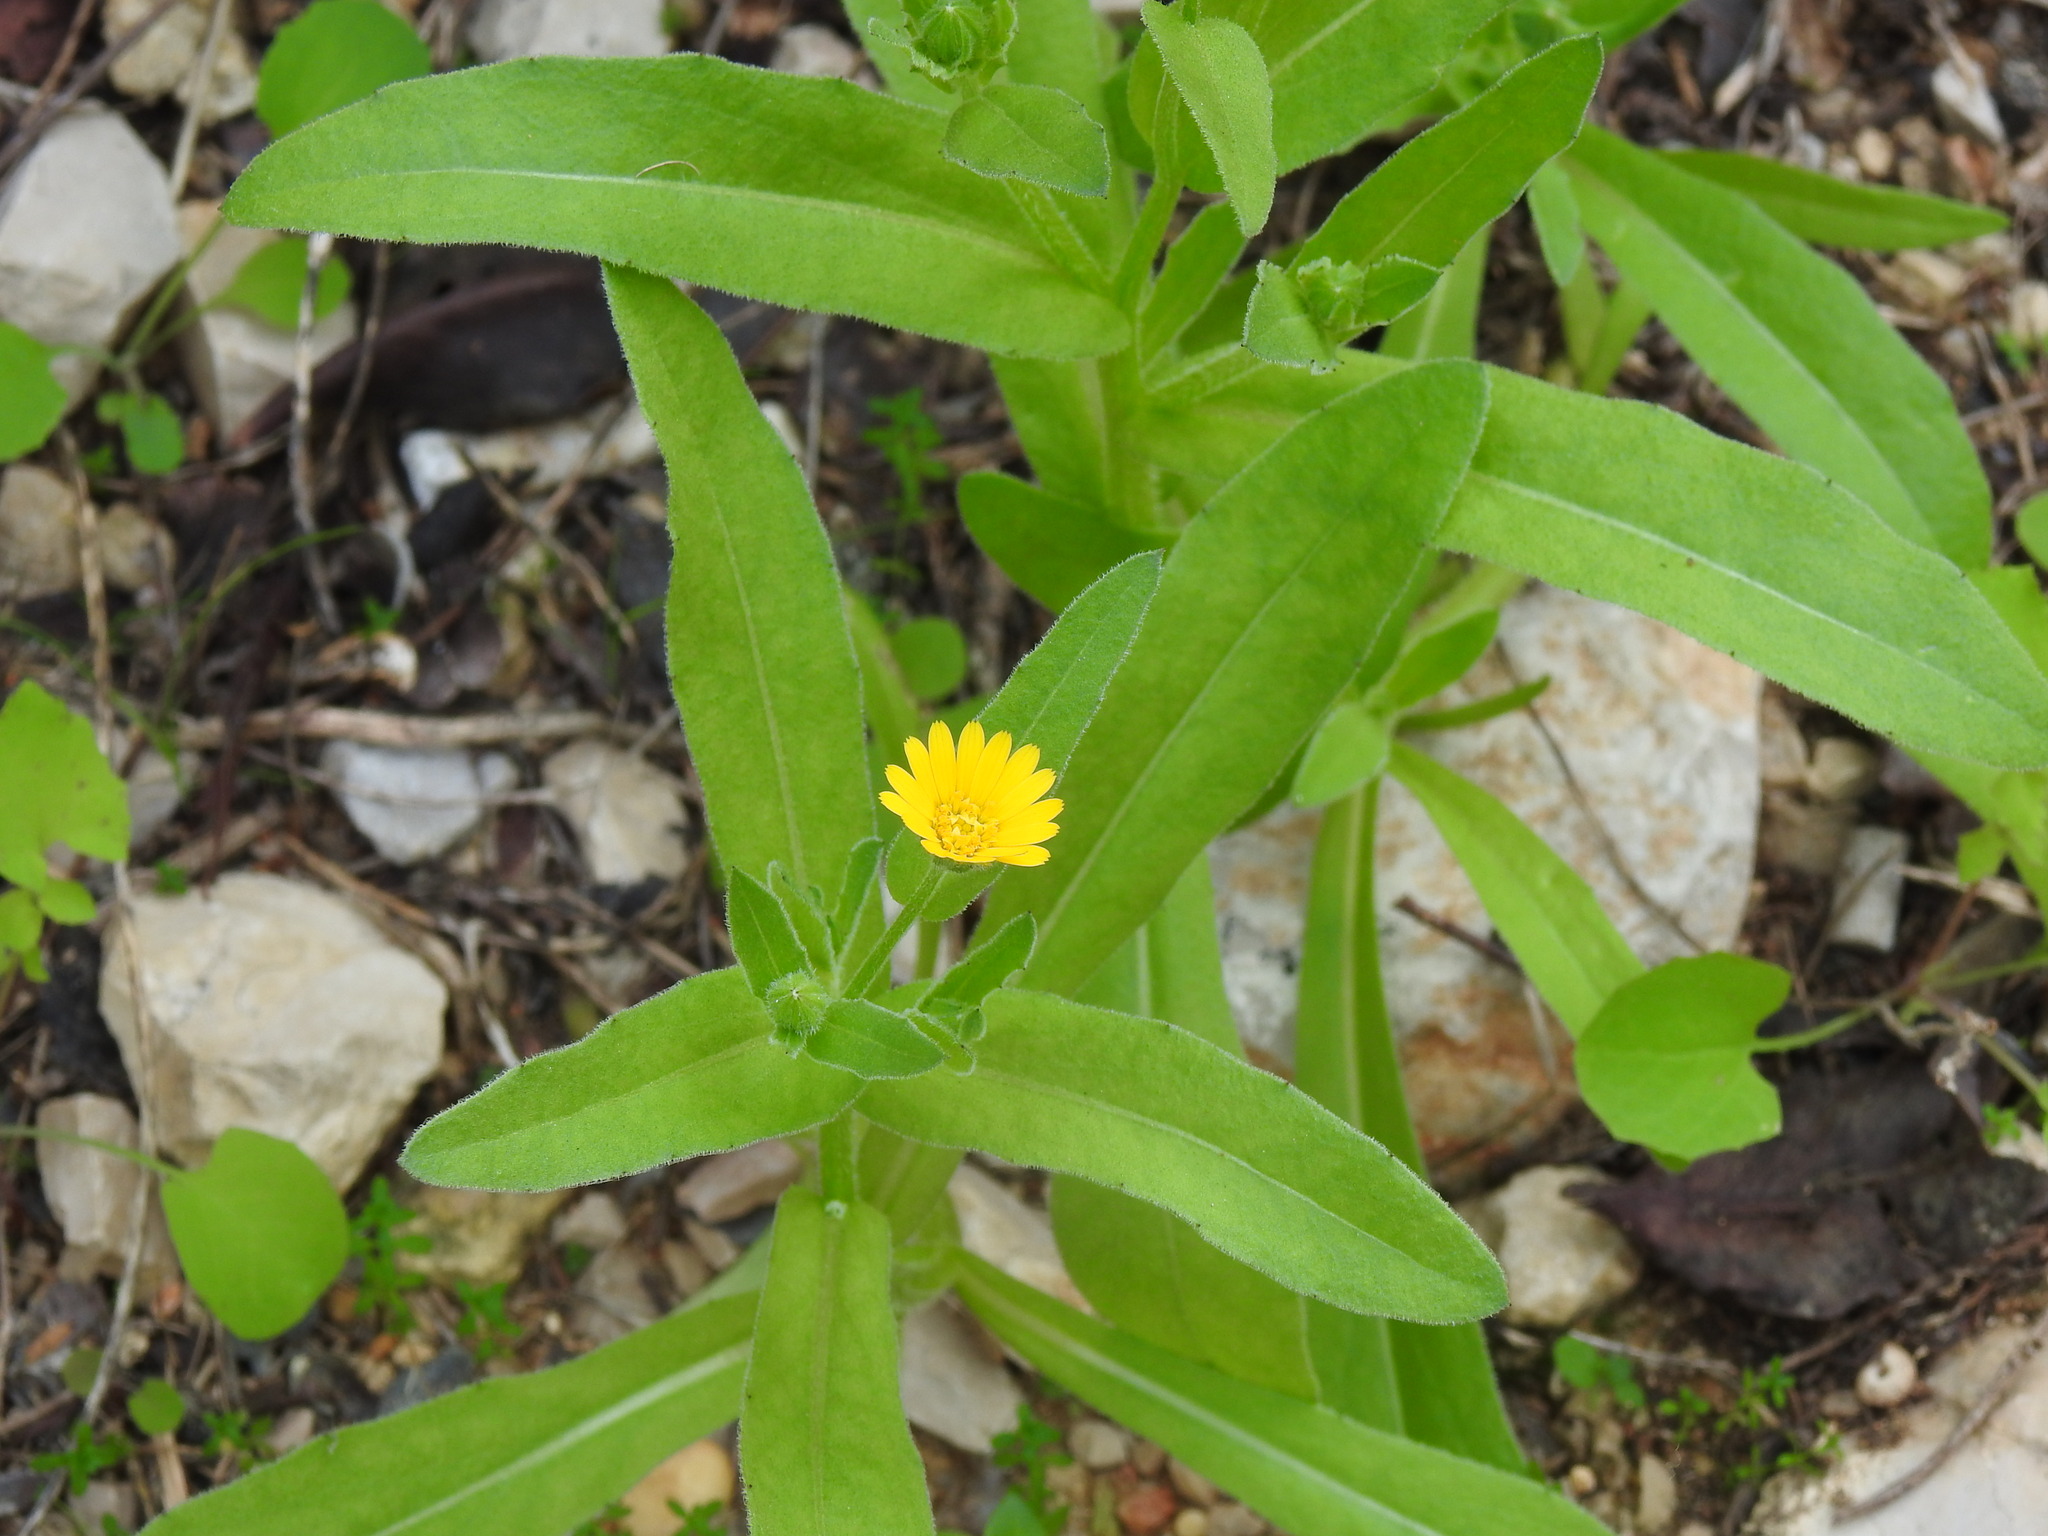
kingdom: Plantae
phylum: Tracheophyta
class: Magnoliopsida
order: Asterales
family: Asteraceae
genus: Calendula
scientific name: Calendula arvensis
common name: Field marigold
